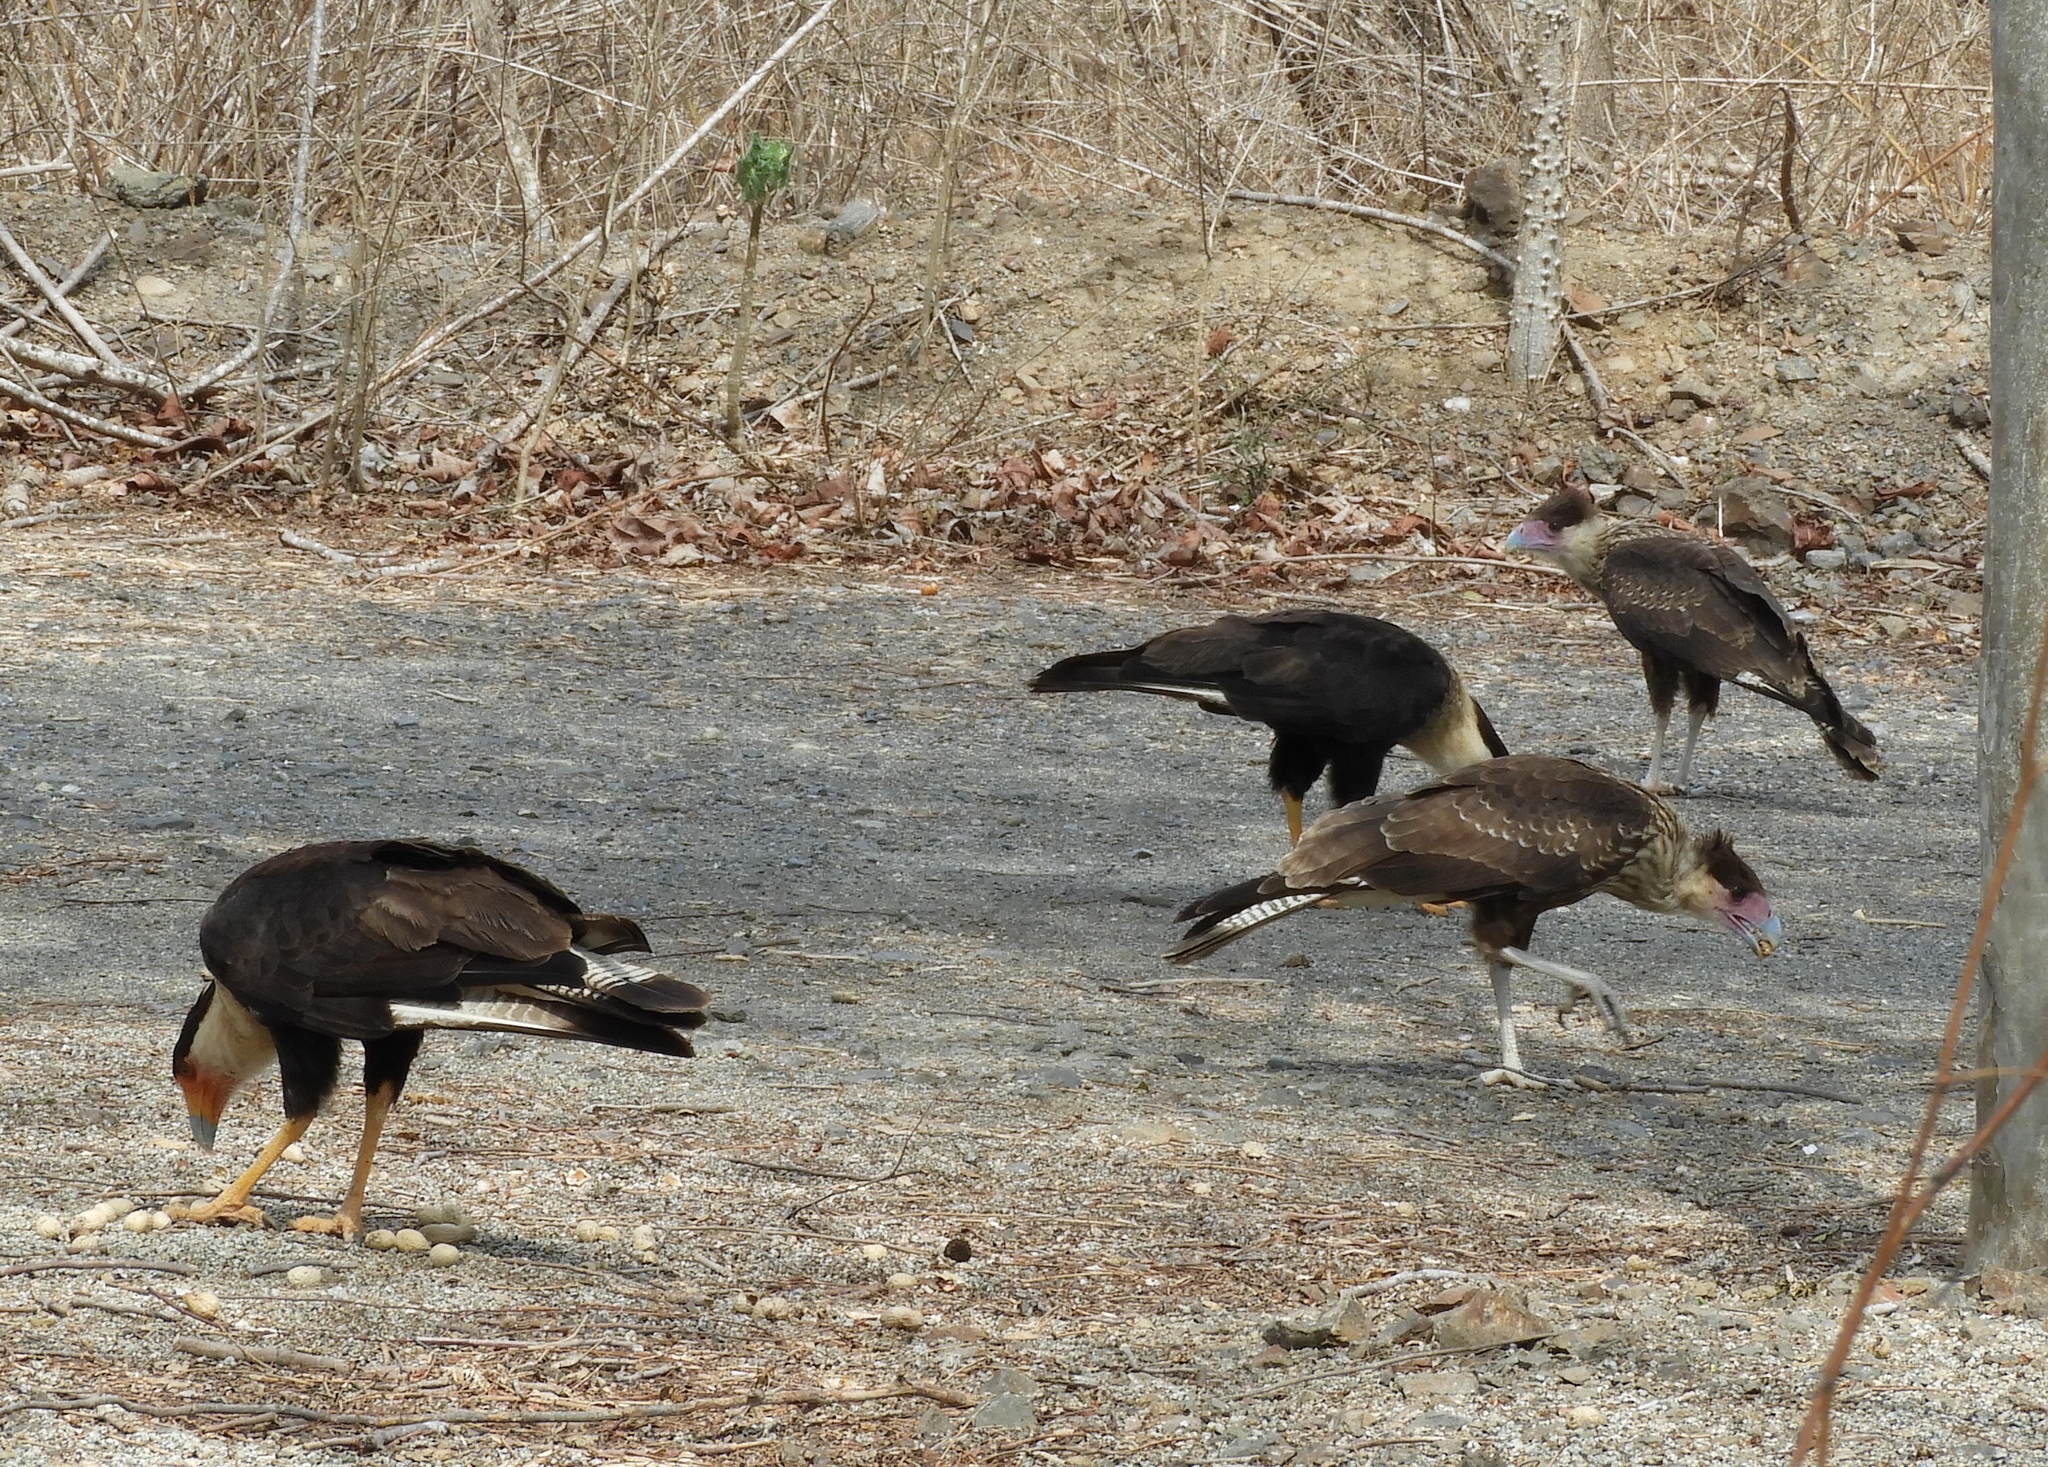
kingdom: Animalia
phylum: Chordata
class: Aves
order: Falconiformes
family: Falconidae
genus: Caracara
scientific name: Caracara plancus
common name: Southern caracara
